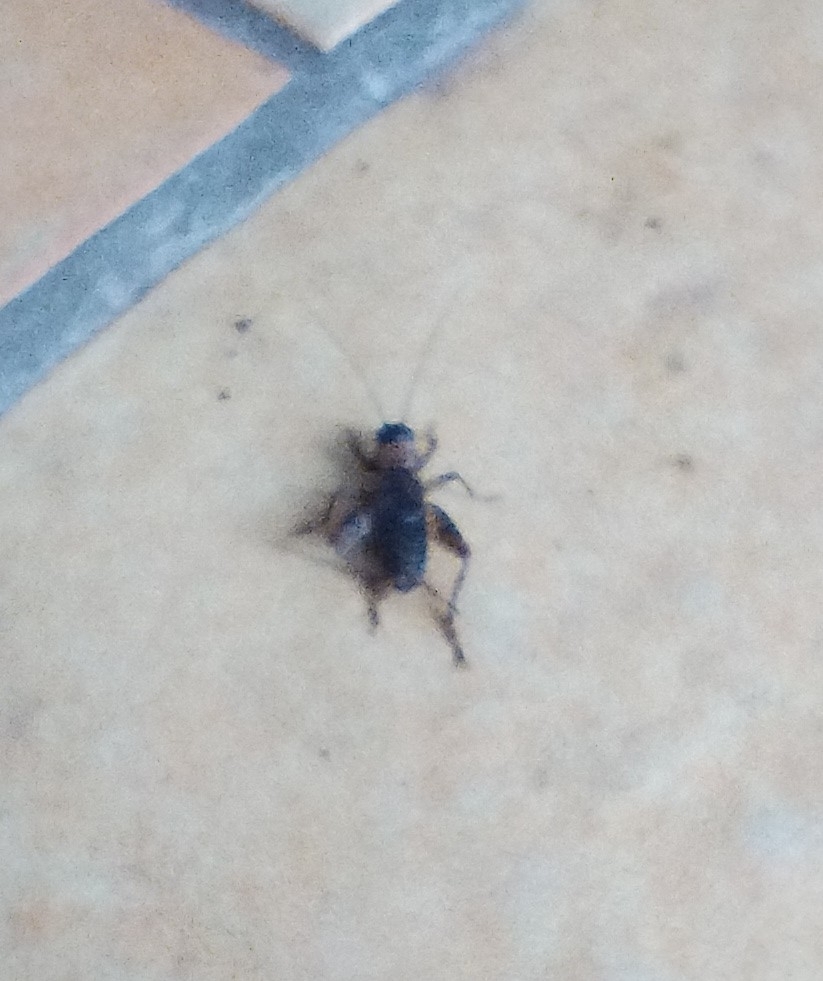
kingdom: Animalia
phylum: Arthropoda
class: Insecta
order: Orthoptera
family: Trigonidiidae
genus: Nemobius
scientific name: Nemobius sylvestris
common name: Wood-cricket
